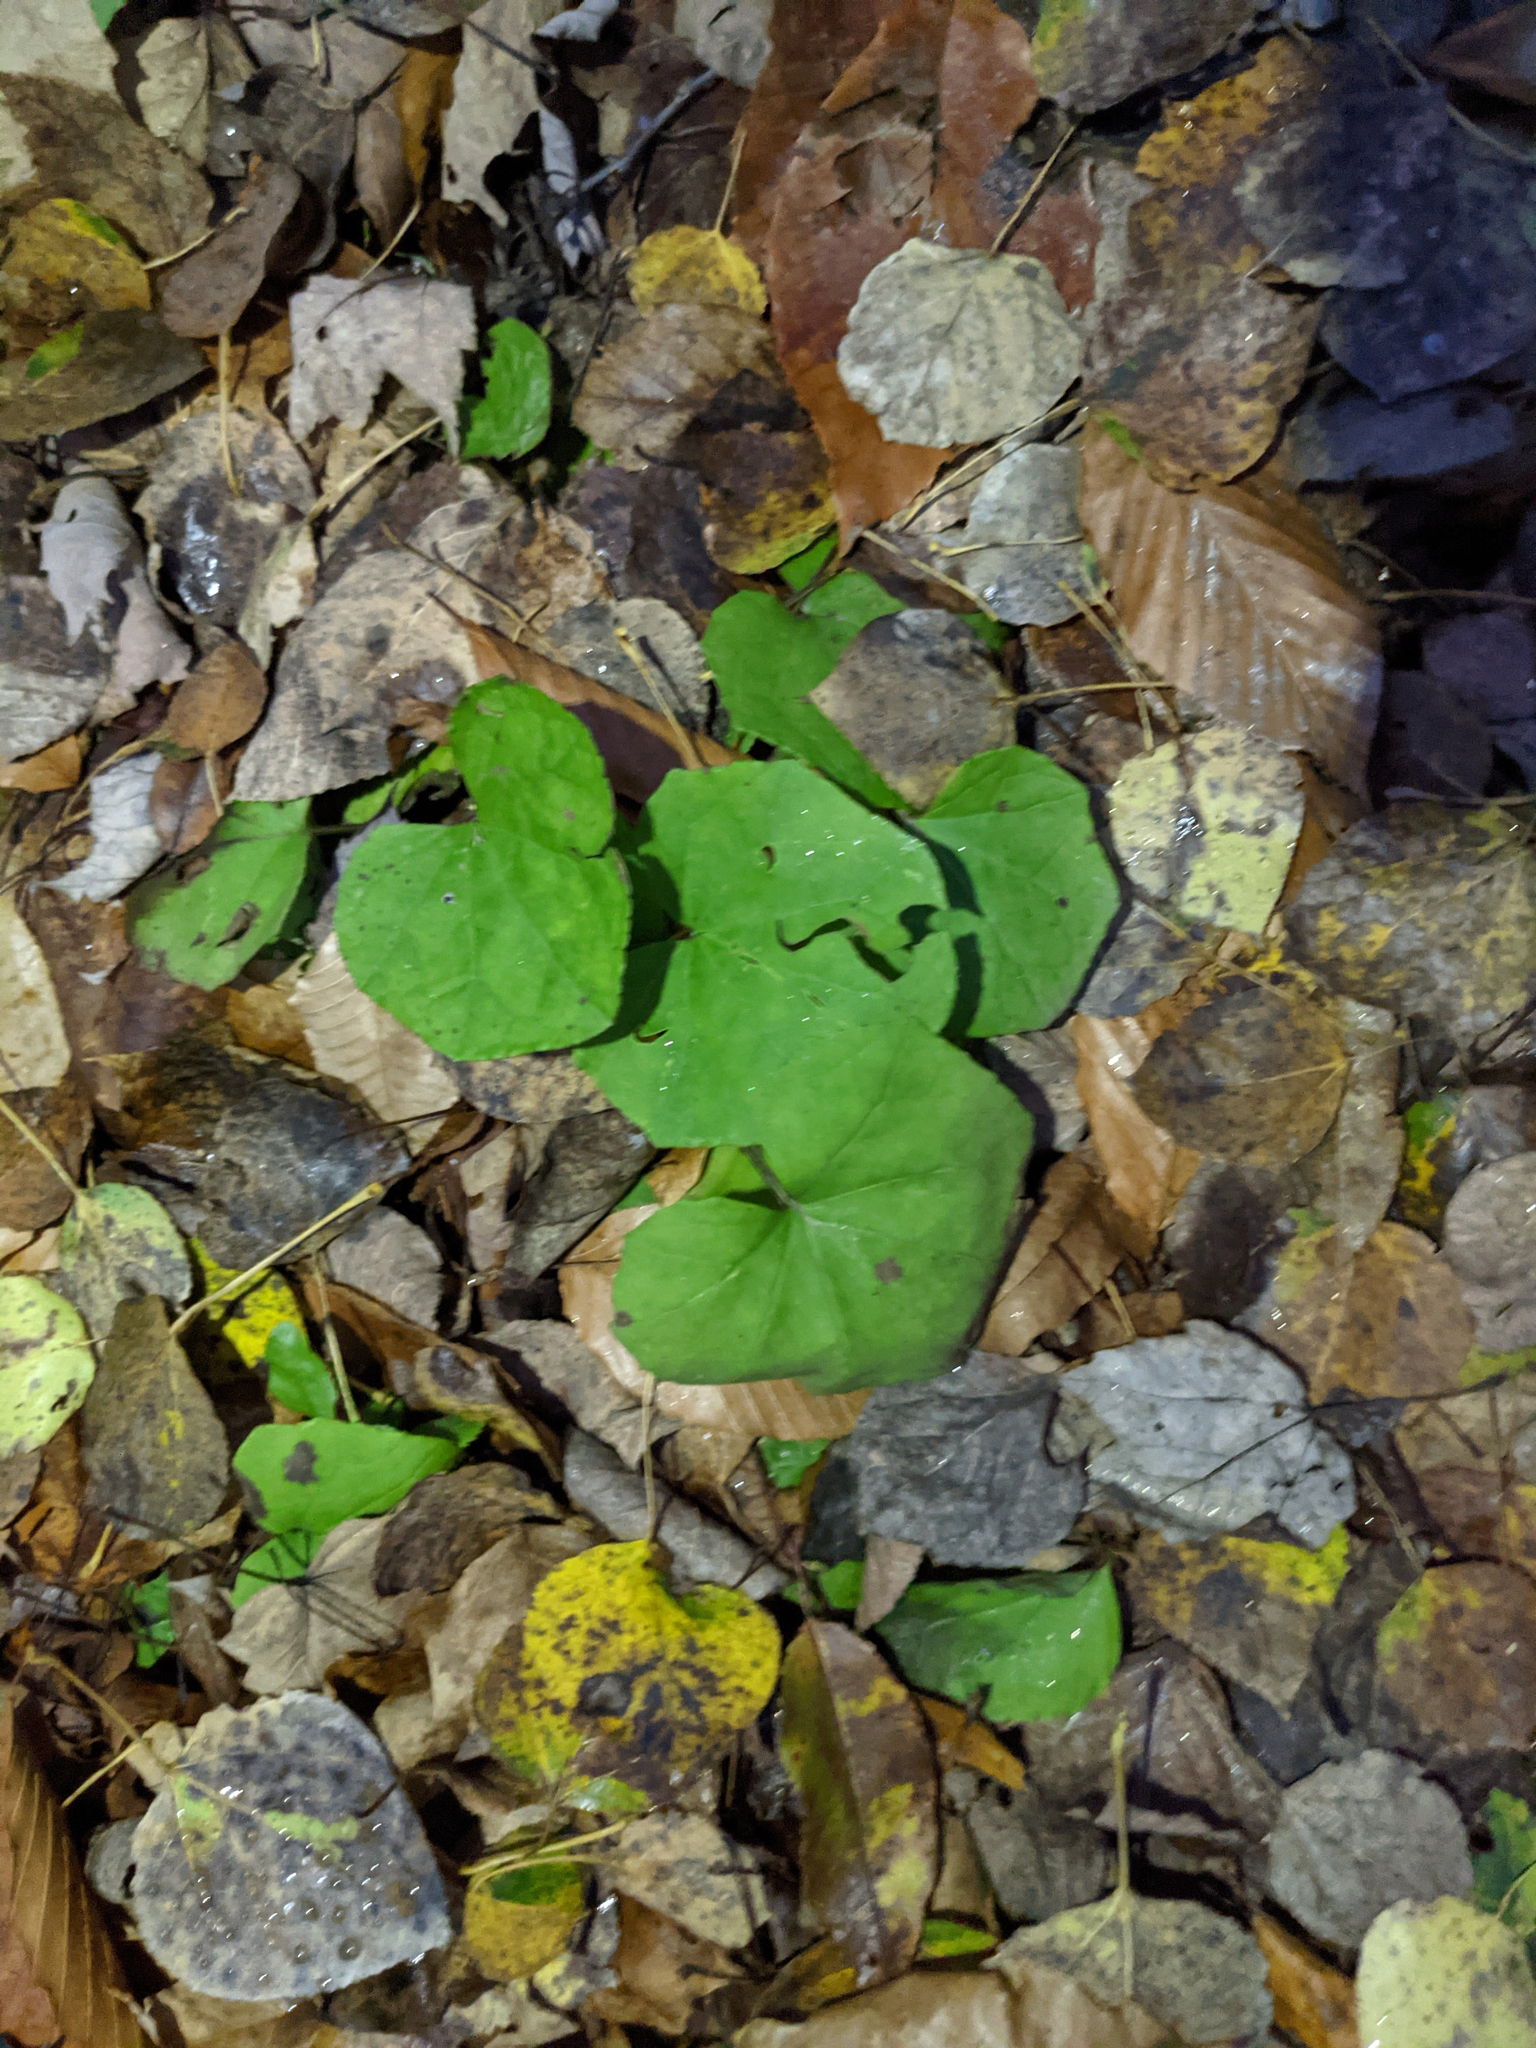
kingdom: Plantae
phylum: Tracheophyta
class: Magnoliopsida
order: Asterales
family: Asteraceae
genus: Tussilago
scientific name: Tussilago farfara
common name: Coltsfoot
